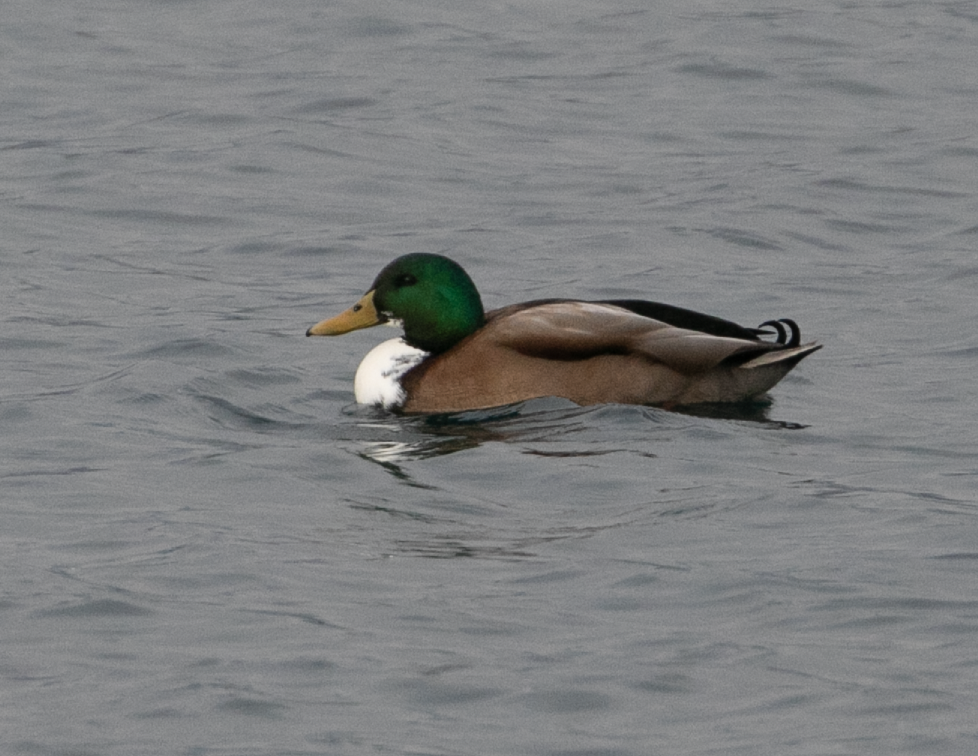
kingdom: Animalia
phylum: Chordata
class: Aves
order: Anseriformes
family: Anatidae
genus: Anas
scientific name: Anas platyrhynchos
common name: Mallard
